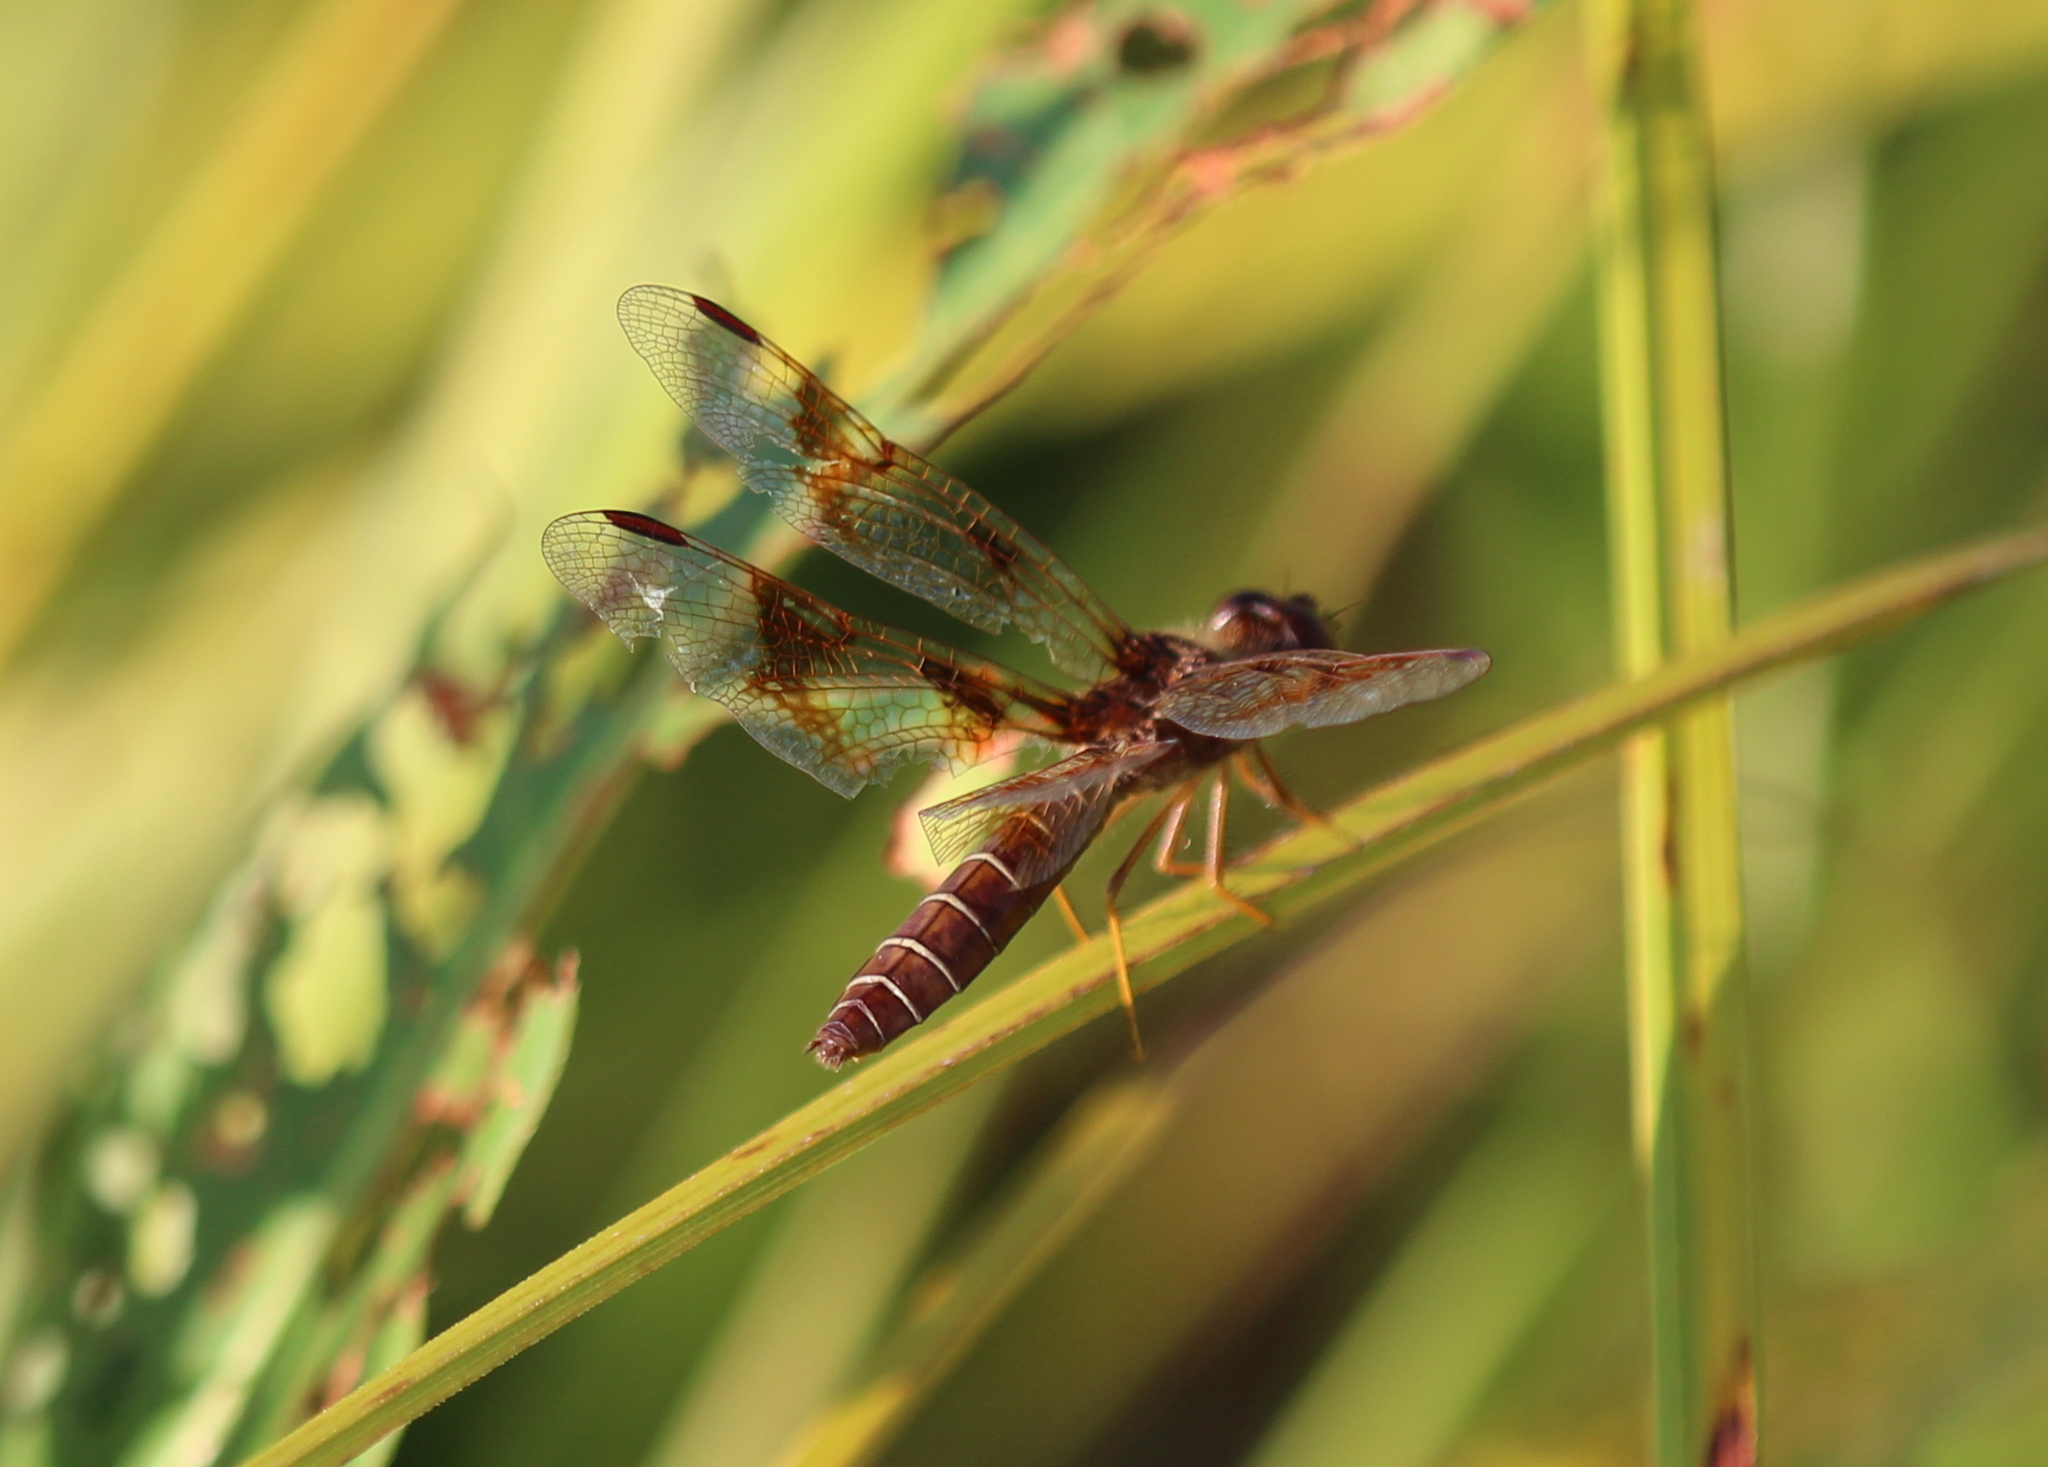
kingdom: Animalia
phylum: Arthropoda
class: Insecta
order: Odonata
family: Libellulidae
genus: Perithemis
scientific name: Perithemis tenera
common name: Eastern amberwing
